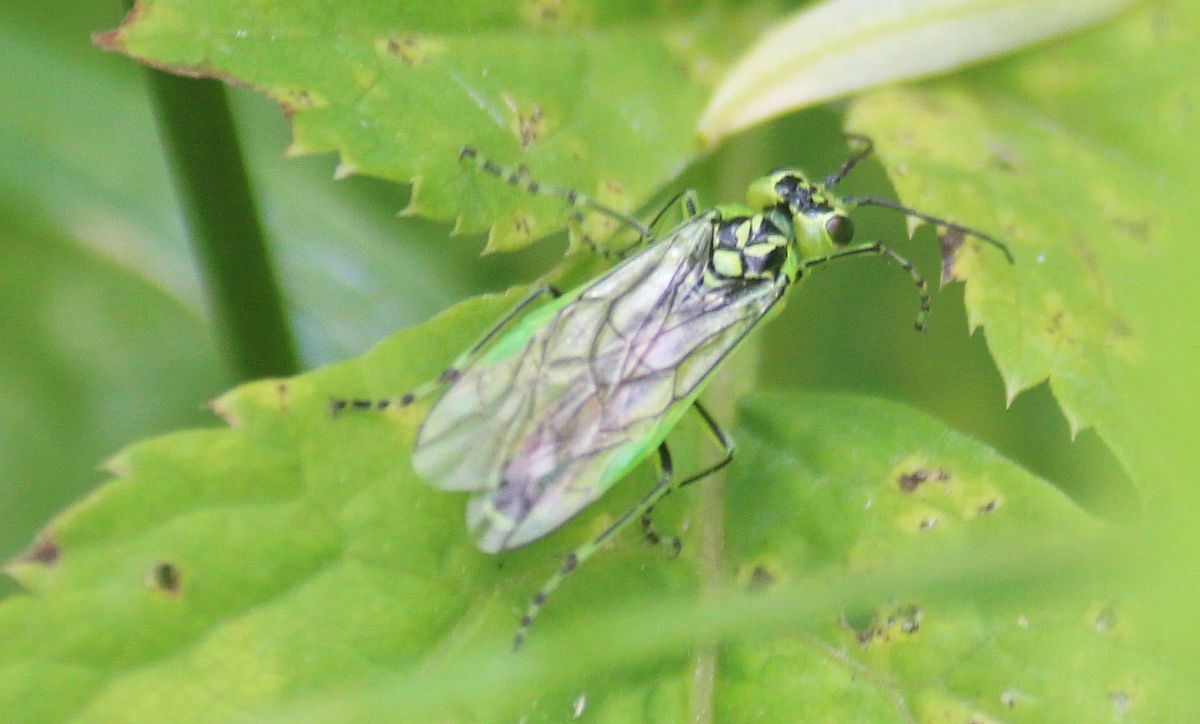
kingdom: Animalia
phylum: Arthropoda
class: Insecta
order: Hymenoptera
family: Tenthredinidae
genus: Rhogogaster
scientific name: Rhogogaster scalaris
